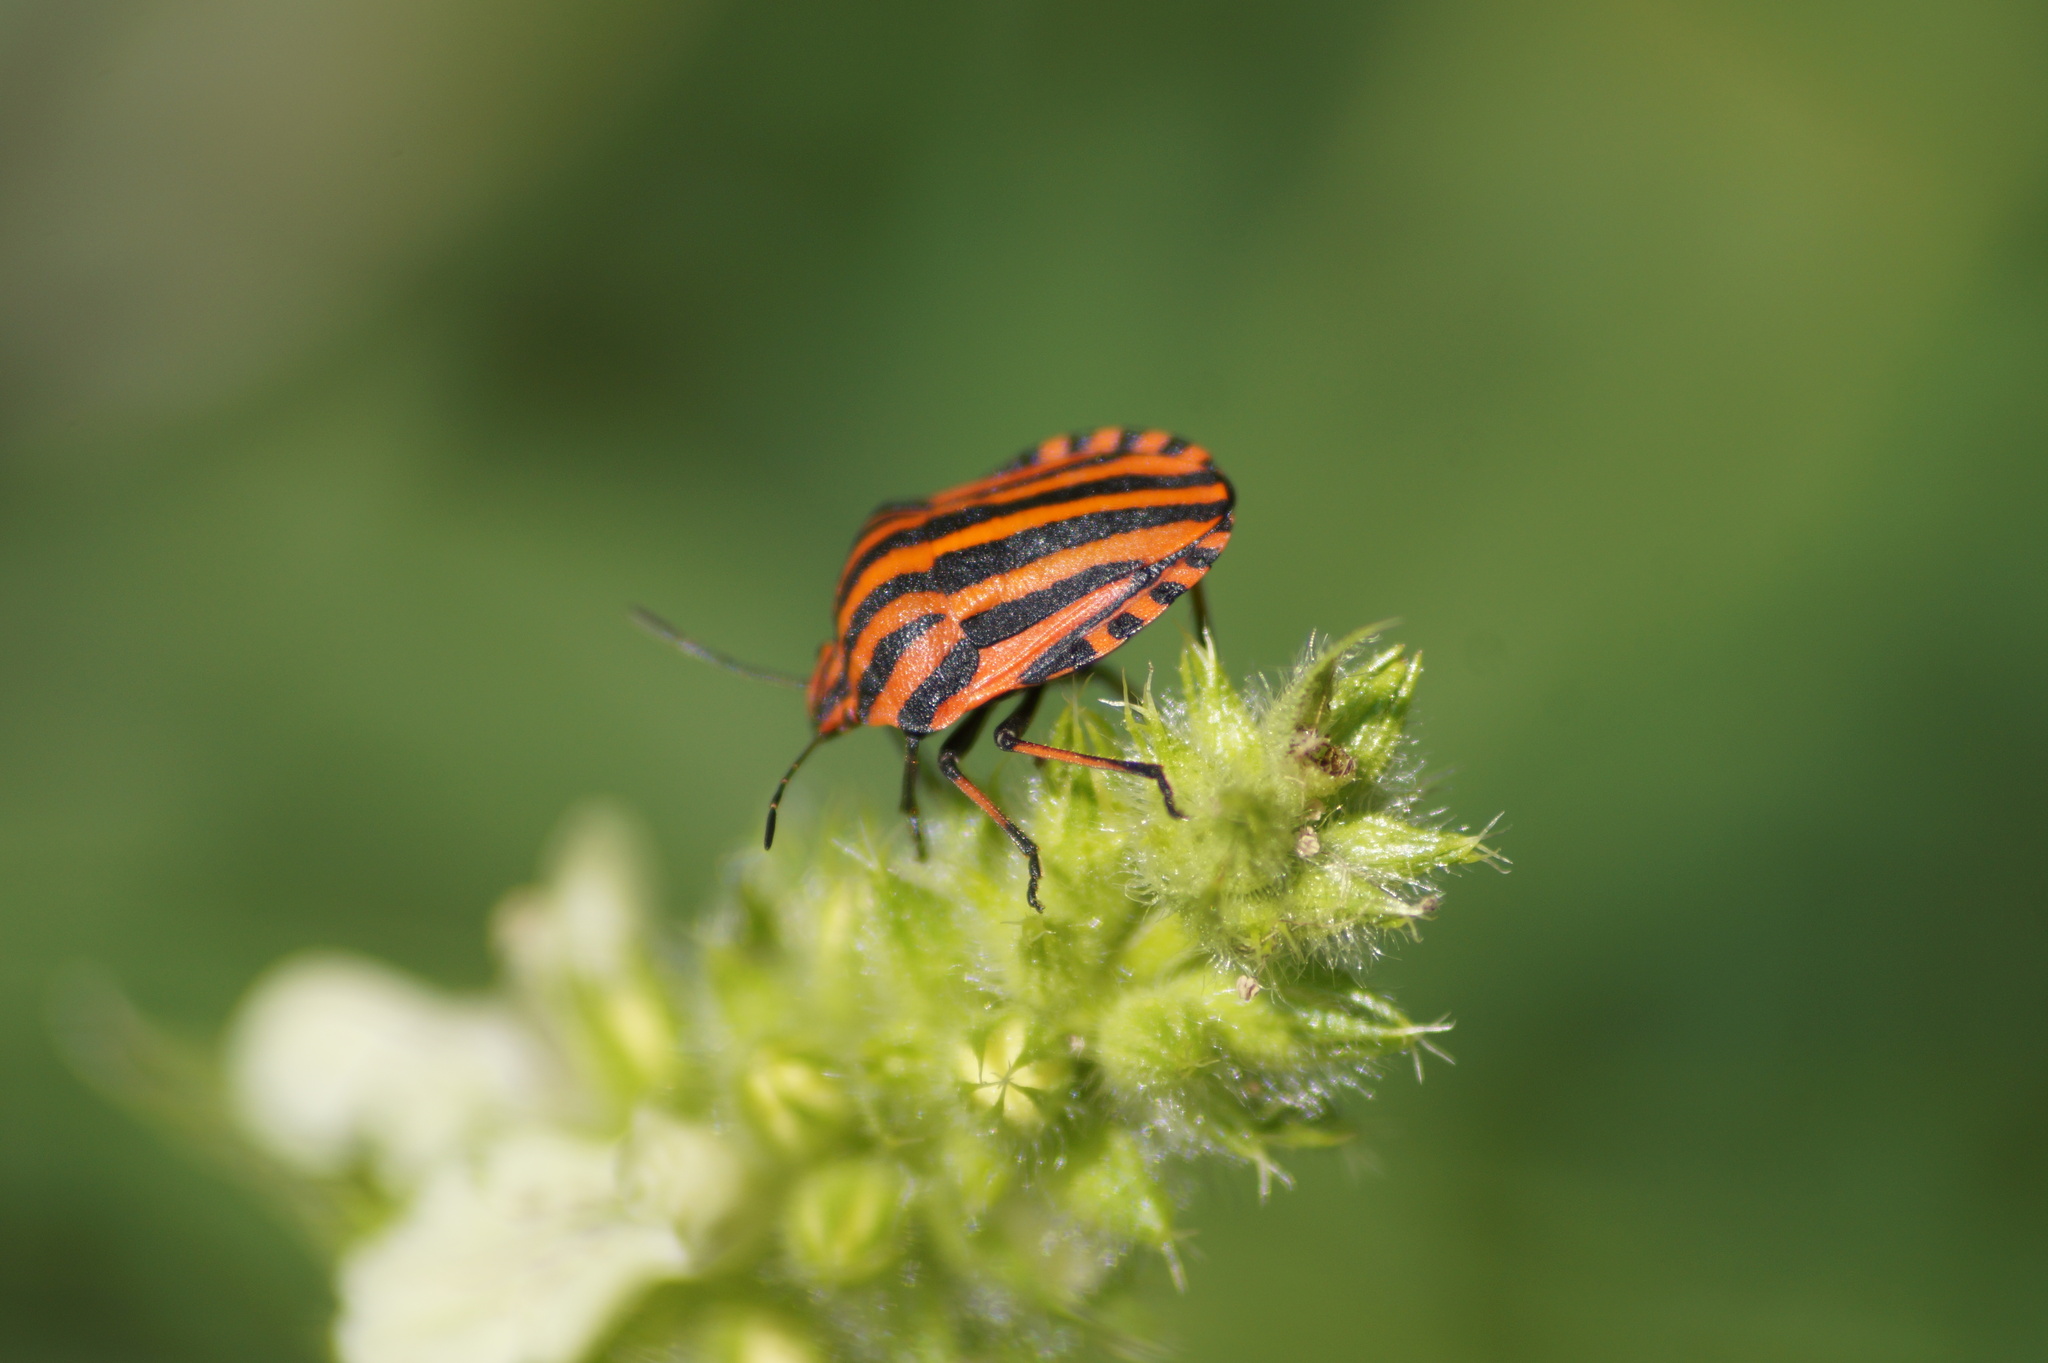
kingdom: Animalia
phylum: Arthropoda
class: Insecta
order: Hemiptera
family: Pentatomidae
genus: Graphosoma
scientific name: Graphosoma italicum
